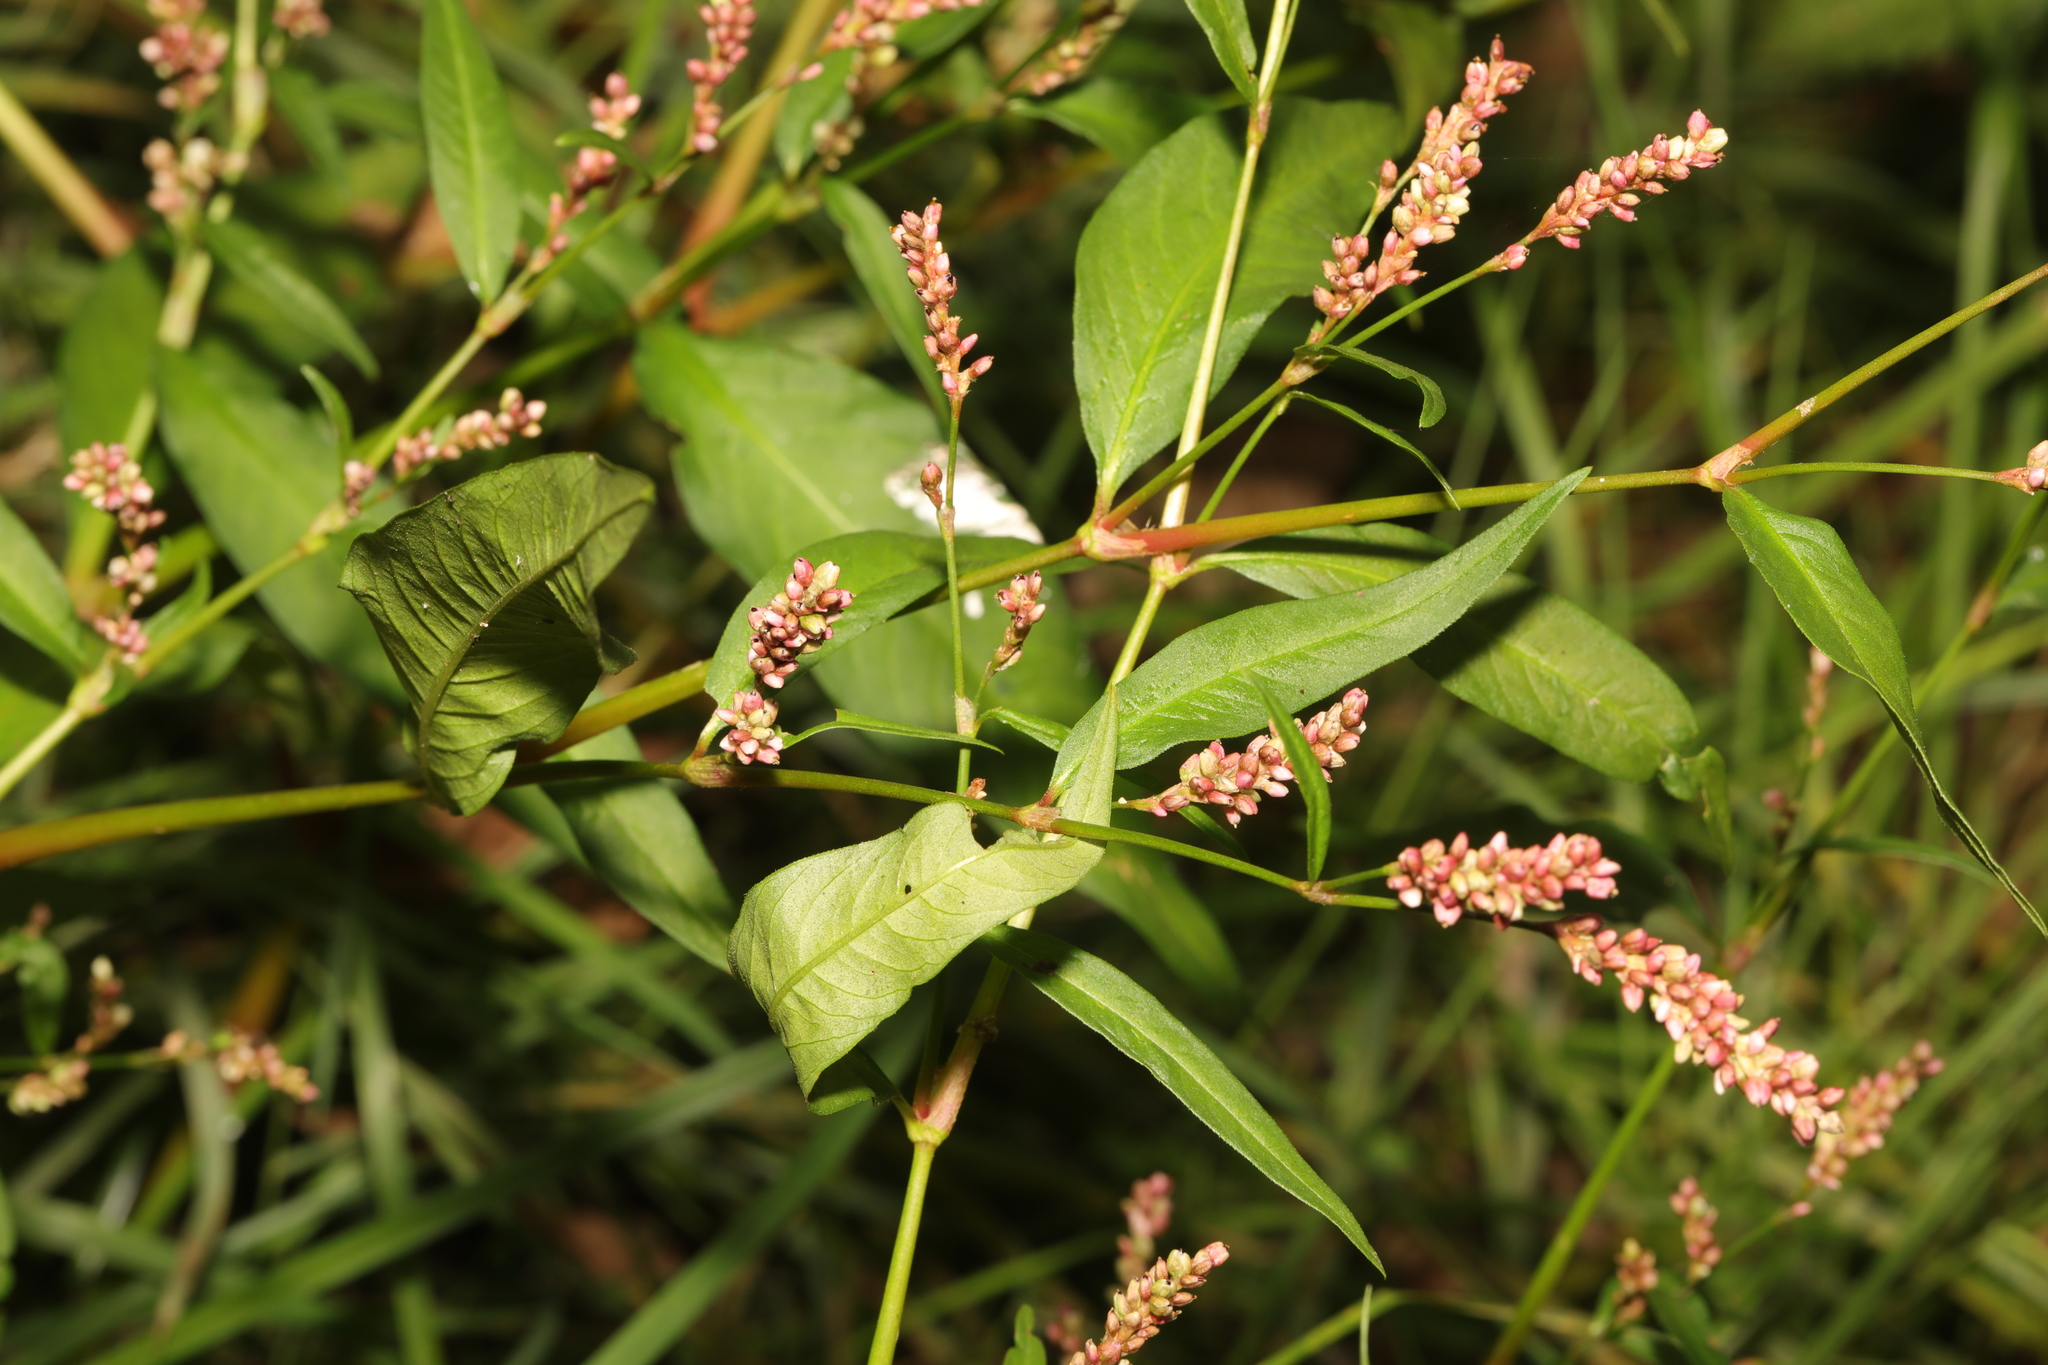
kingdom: Plantae
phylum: Tracheophyta
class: Magnoliopsida
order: Caryophyllales
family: Polygonaceae
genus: Persicaria
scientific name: Persicaria maculosa
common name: Redshank
